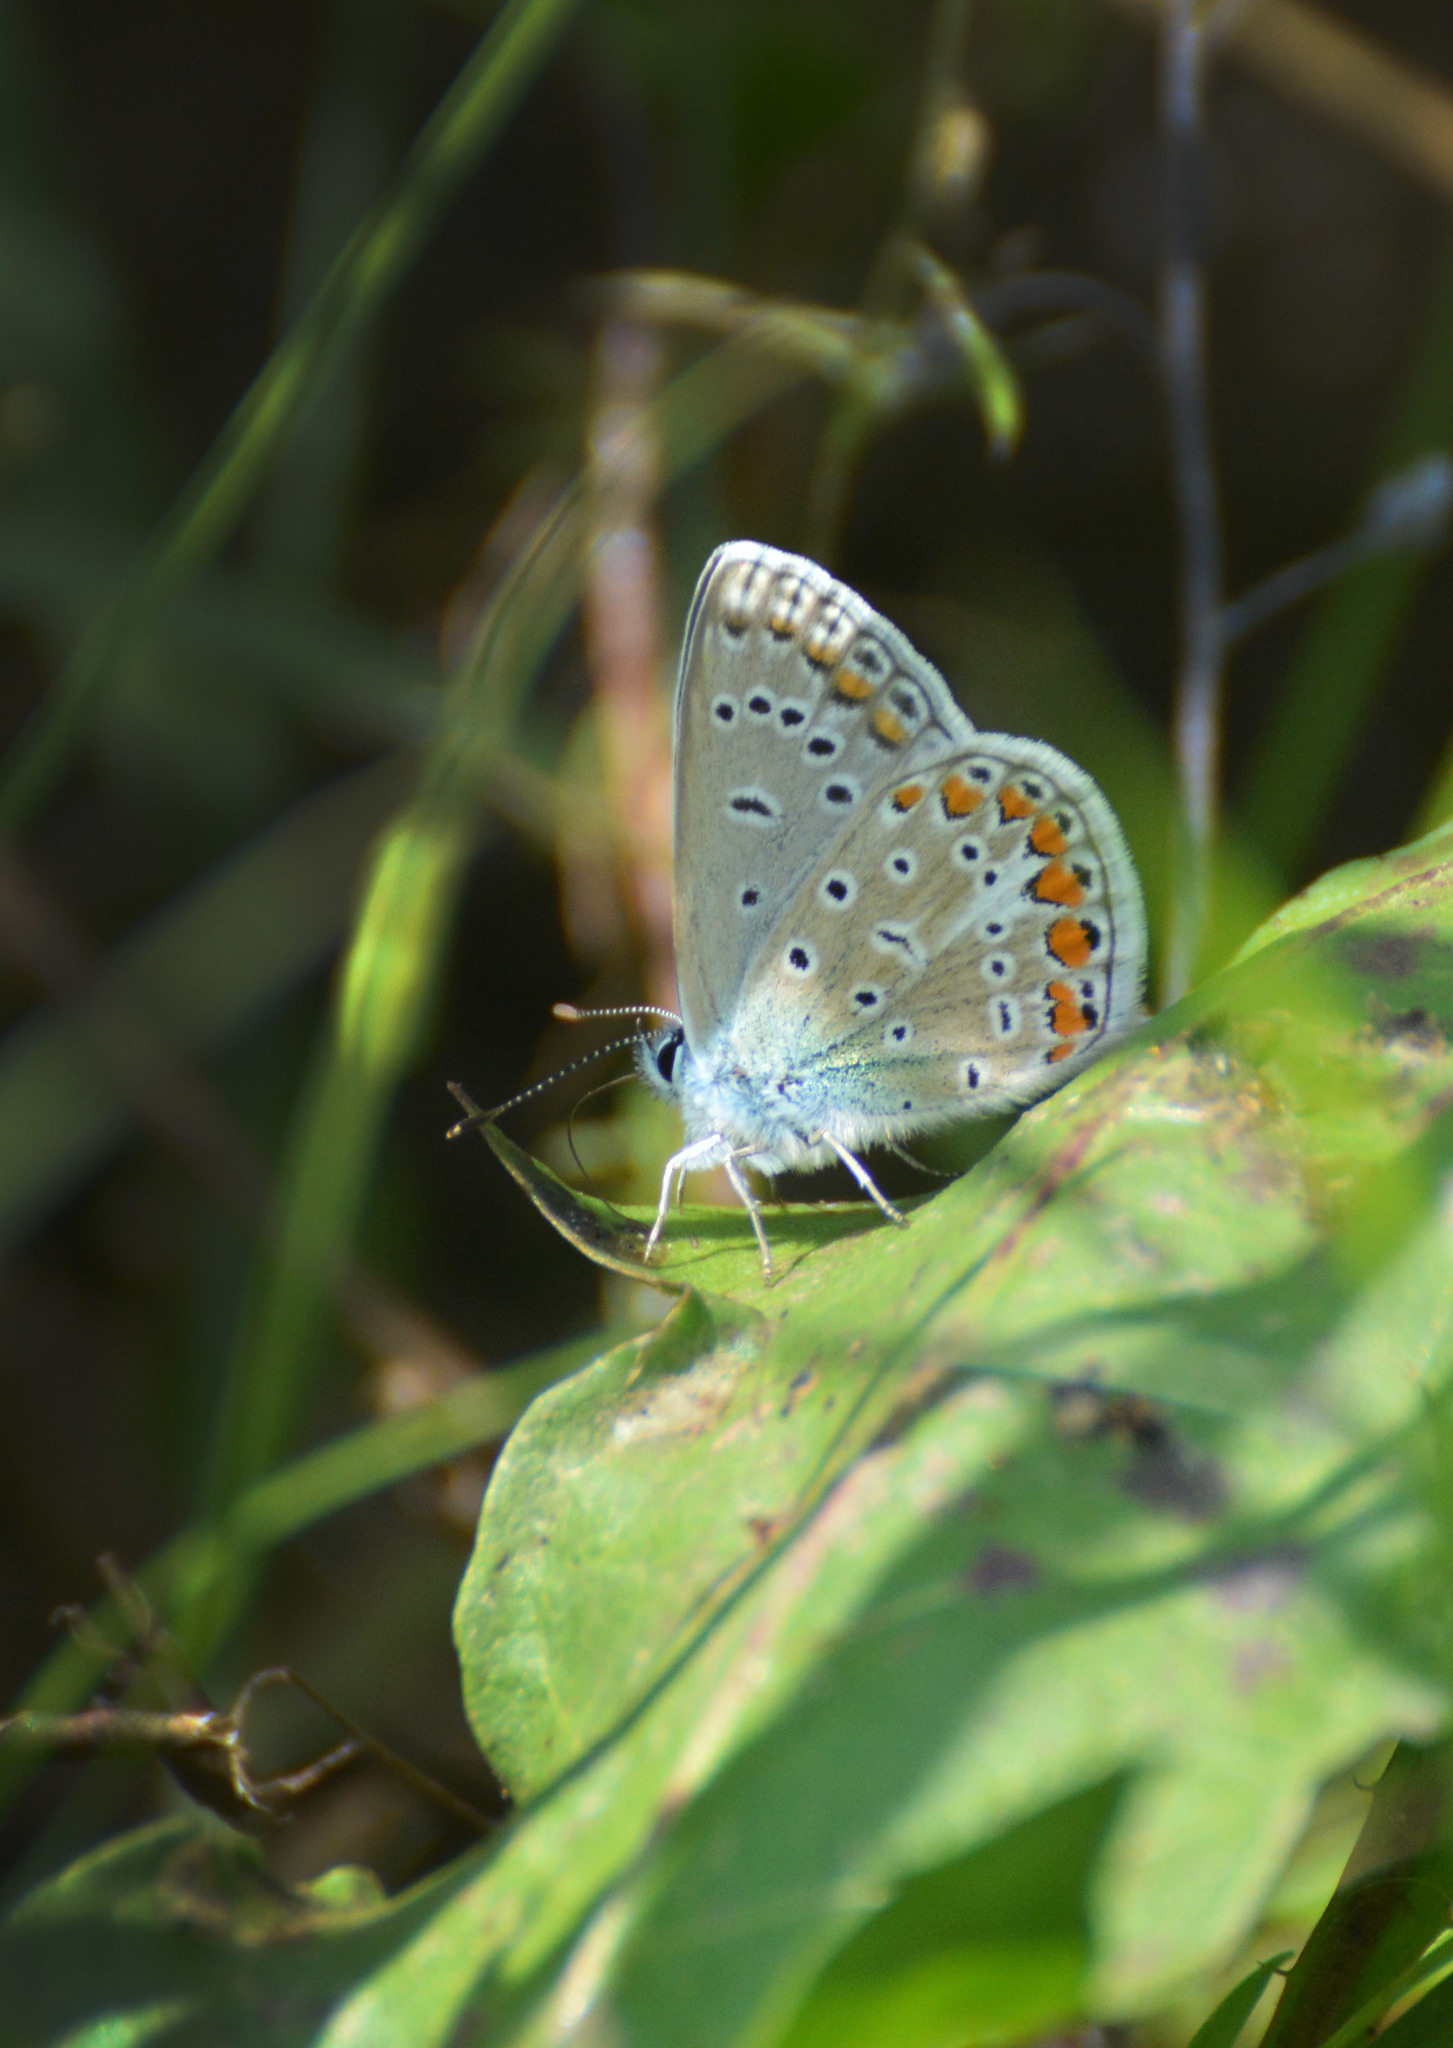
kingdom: Animalia
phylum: Arthropoda
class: Insecta
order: Lepidoptera
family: Lycaenidae
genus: Polyommatus
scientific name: Polyommatus icarus
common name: Common blue
